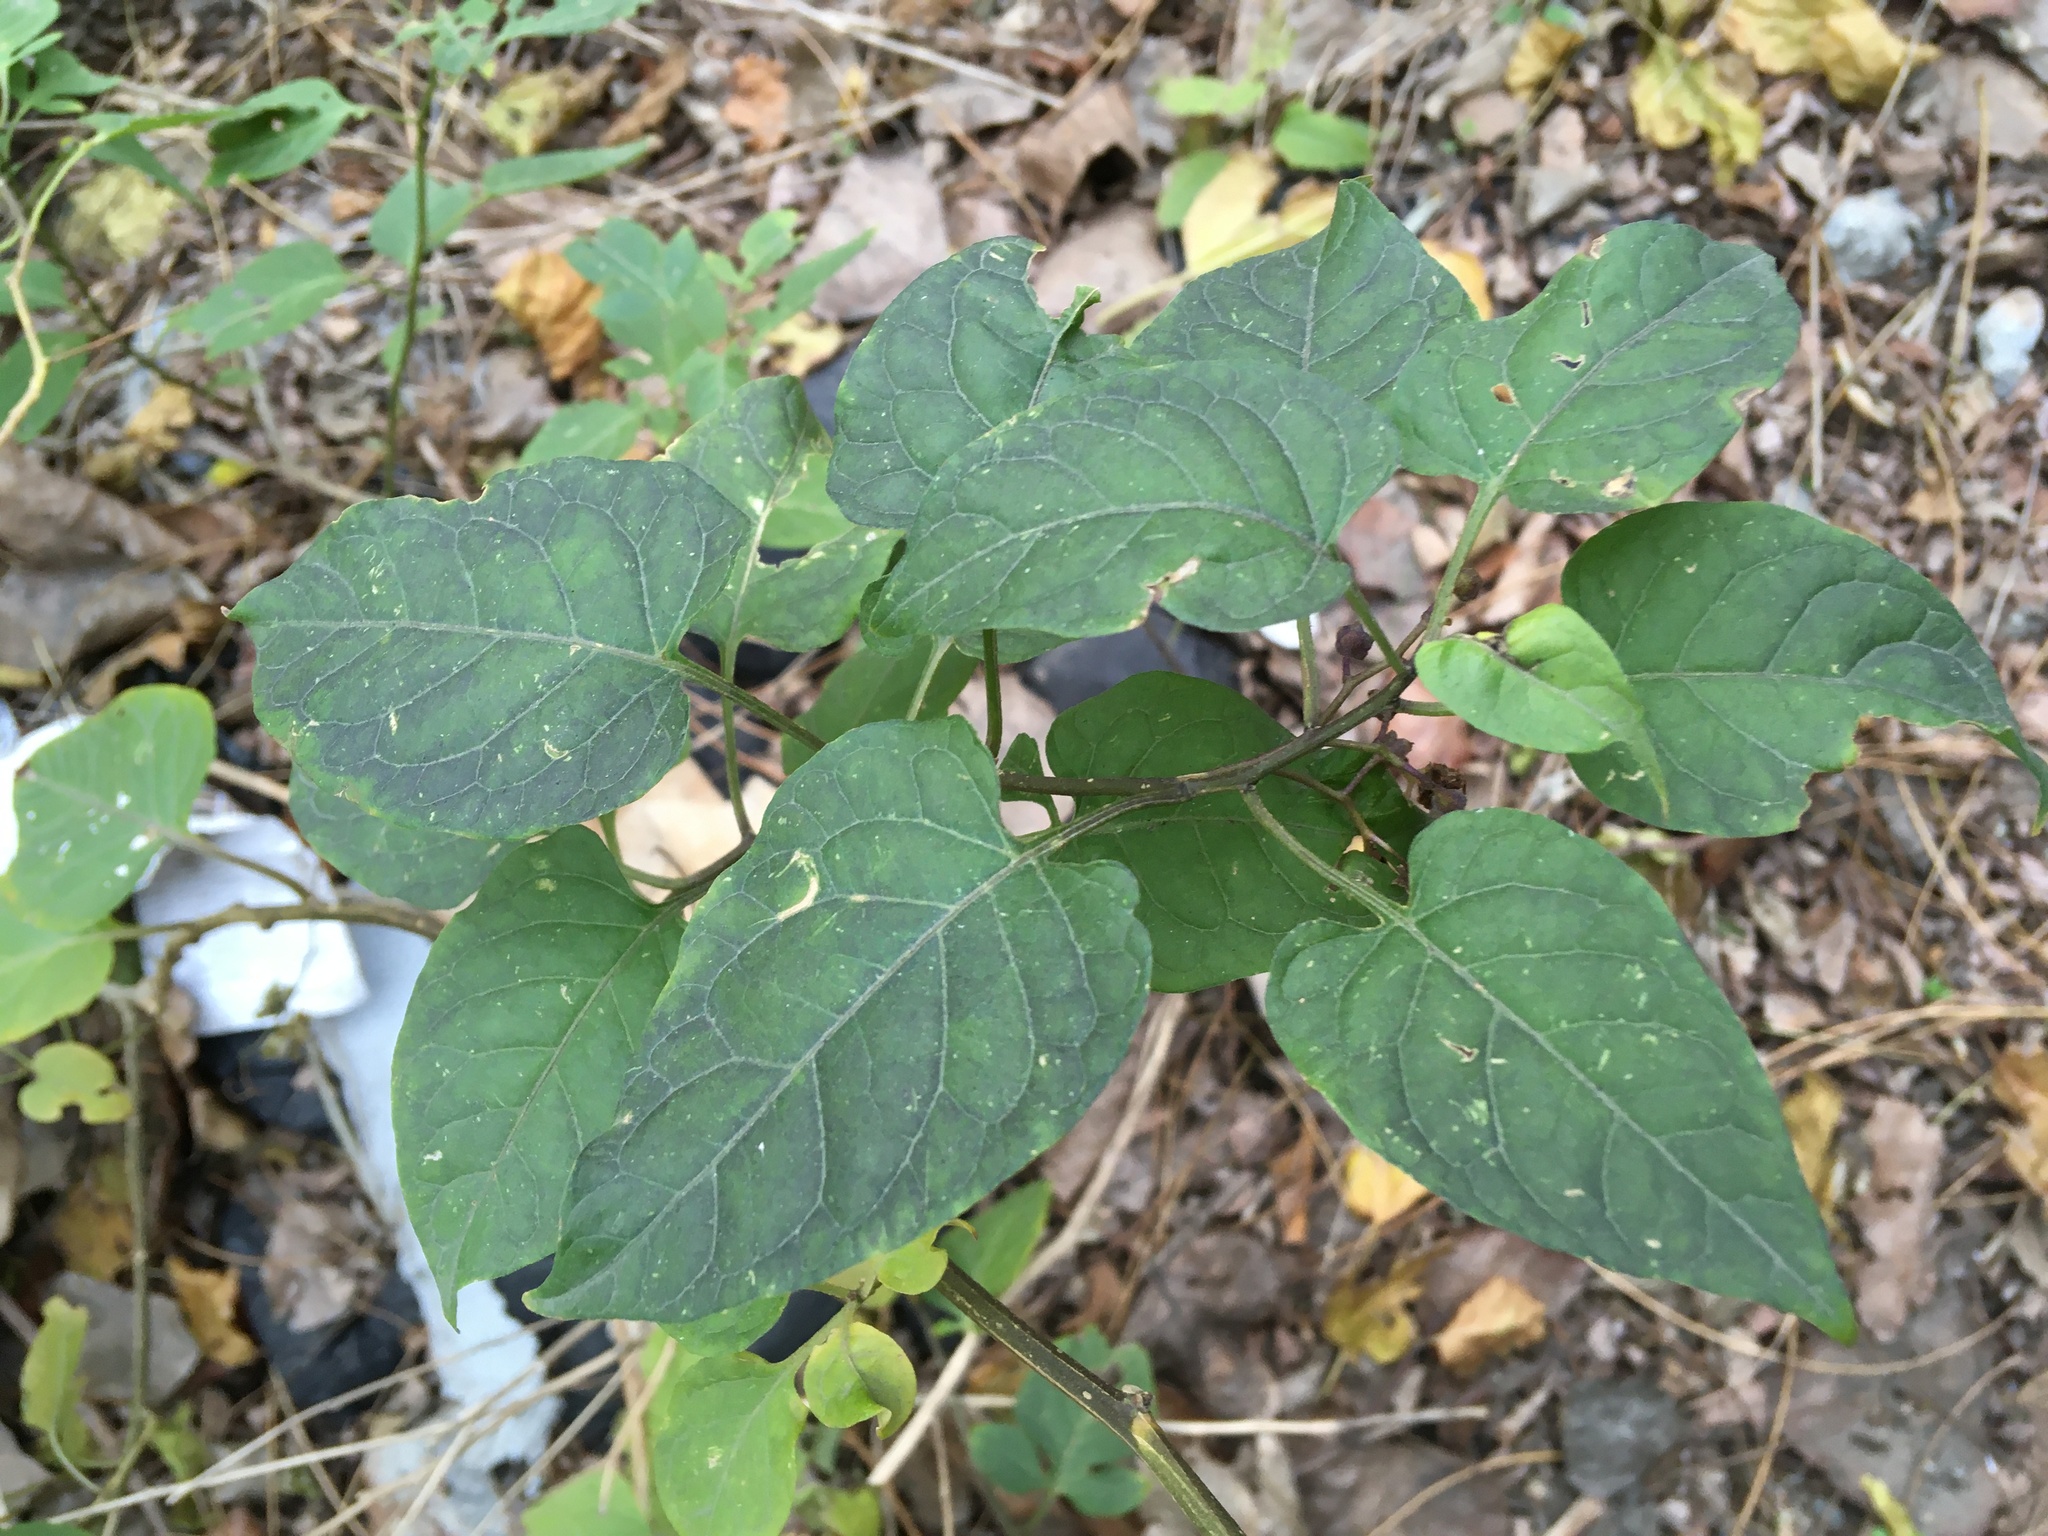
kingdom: Plantae
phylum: Tracheophyta
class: Magnoliopsida
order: Solanales
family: Solanaceae
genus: Solanum
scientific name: Solanum dulcamara
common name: Climbing nightshade
